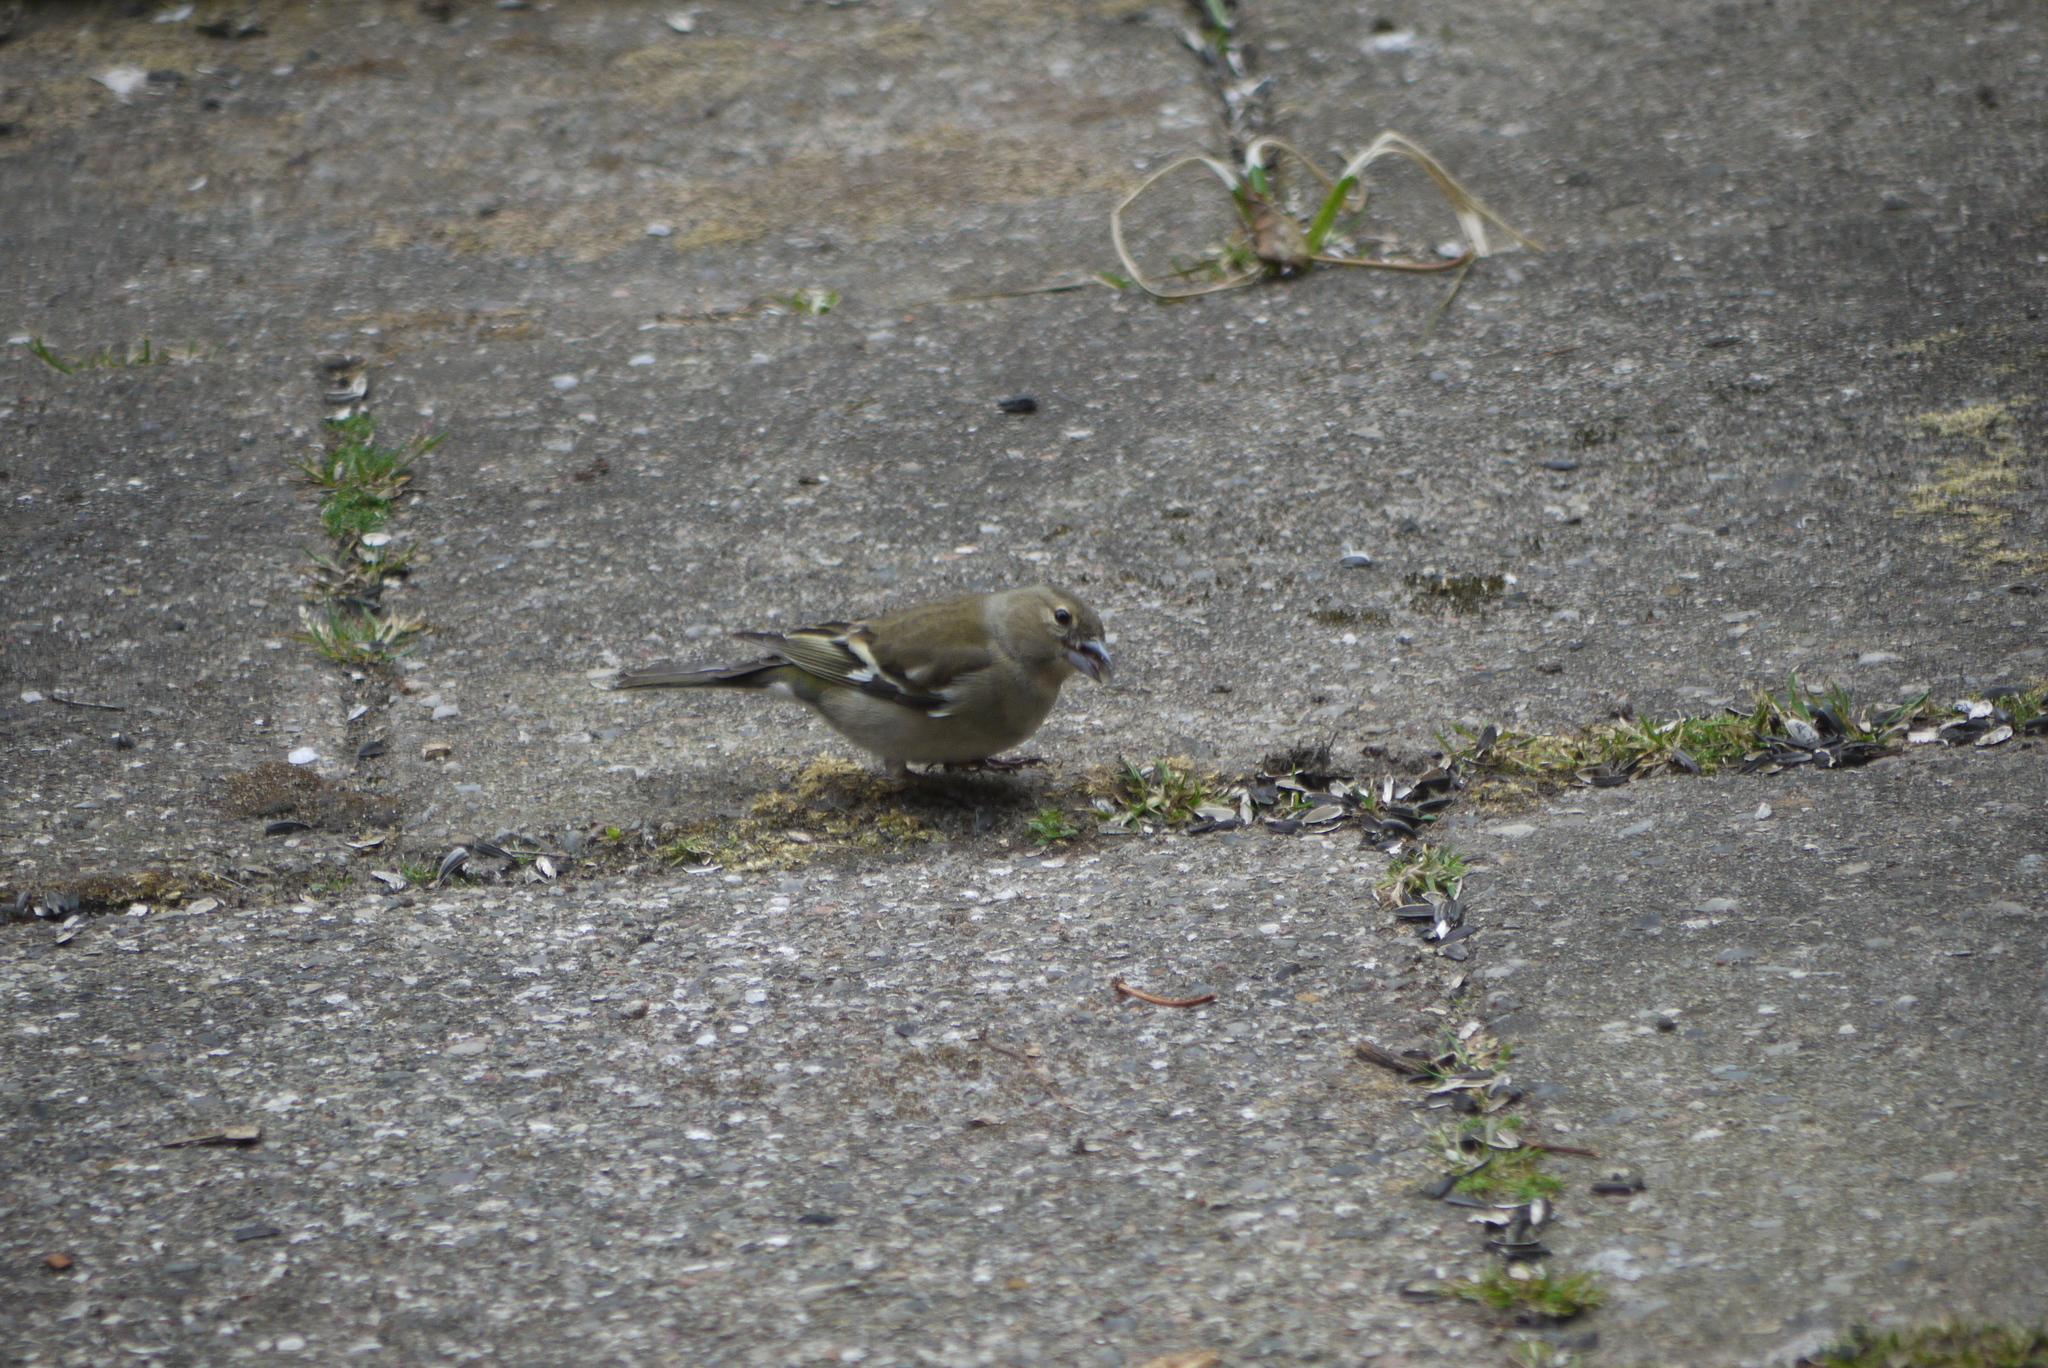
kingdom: Animalia
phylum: Chordata
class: Aves
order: Passeriformes
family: Fringillidae
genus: Fringilla
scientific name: Fringilla coelebs
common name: Common chaffinch
